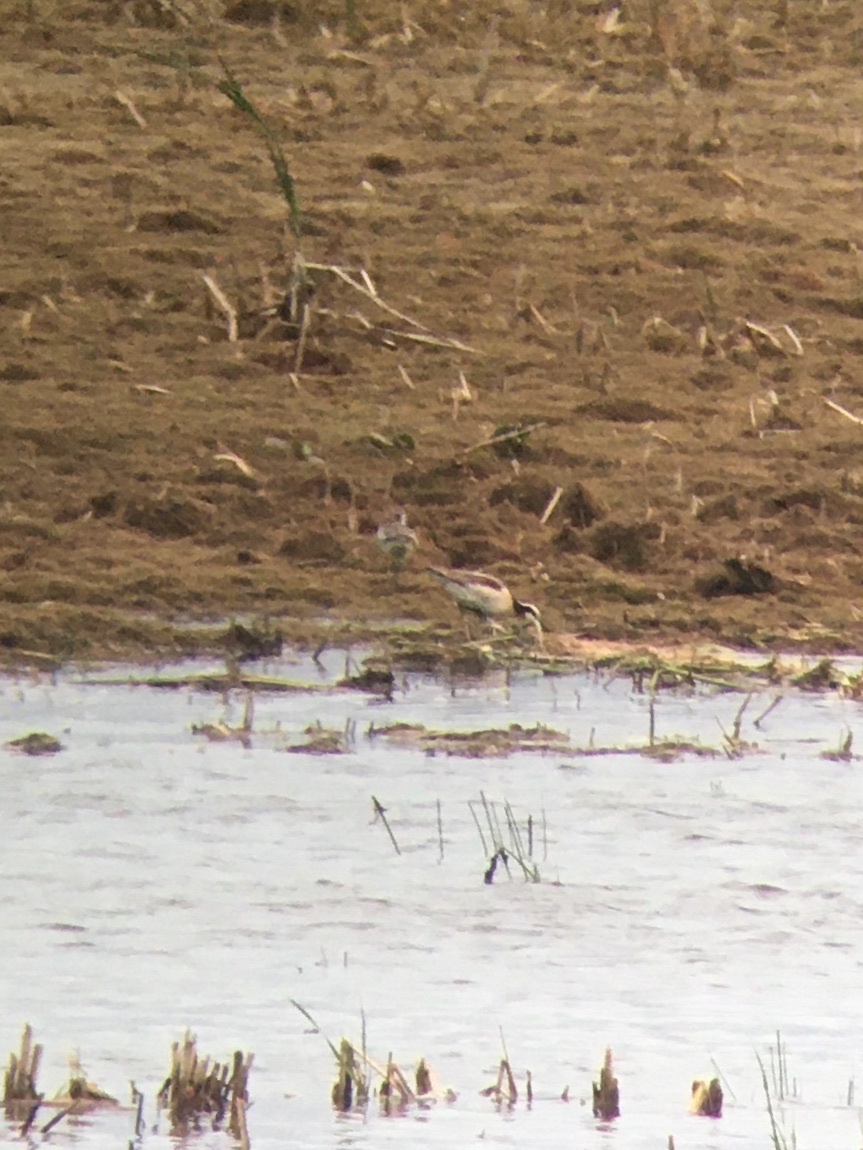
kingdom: Animalia
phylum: Chordata
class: Aves
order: Charadriiformes
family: Scolopacidae
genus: Phalaropus
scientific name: Phalaropus tricolor
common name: Wilson's phalarope
